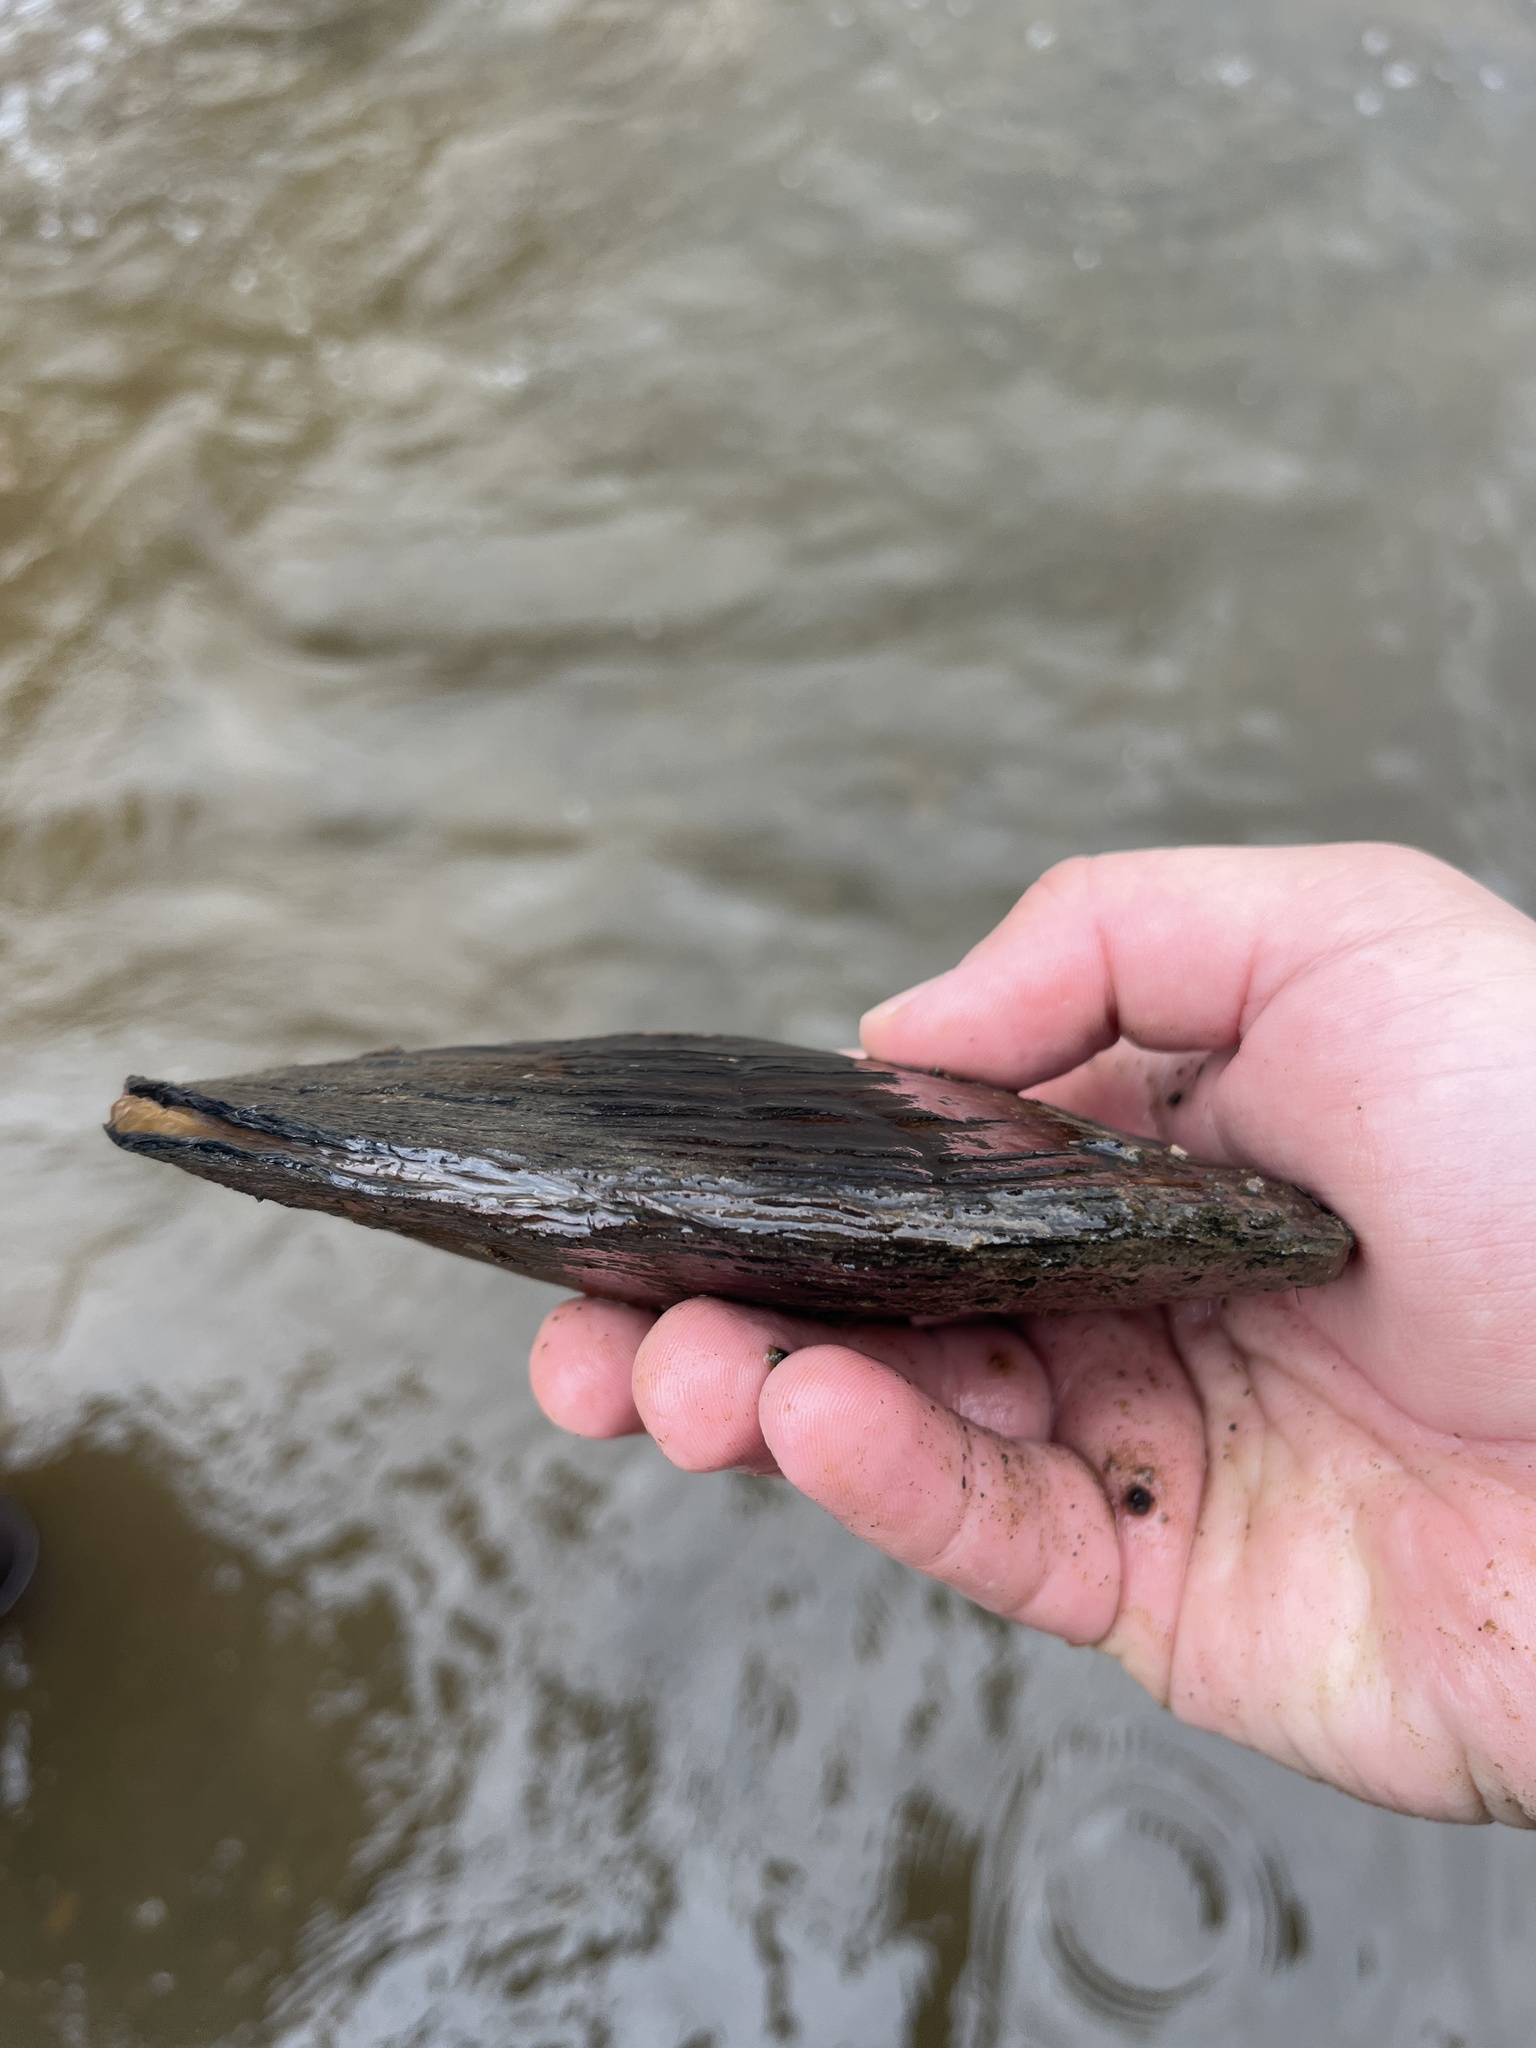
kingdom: Animalia
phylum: Mollusca
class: Bivalvia
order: Unionida
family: Unionidae
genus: Lasmigona
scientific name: Lasmigona complanata
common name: White heelsplitter
